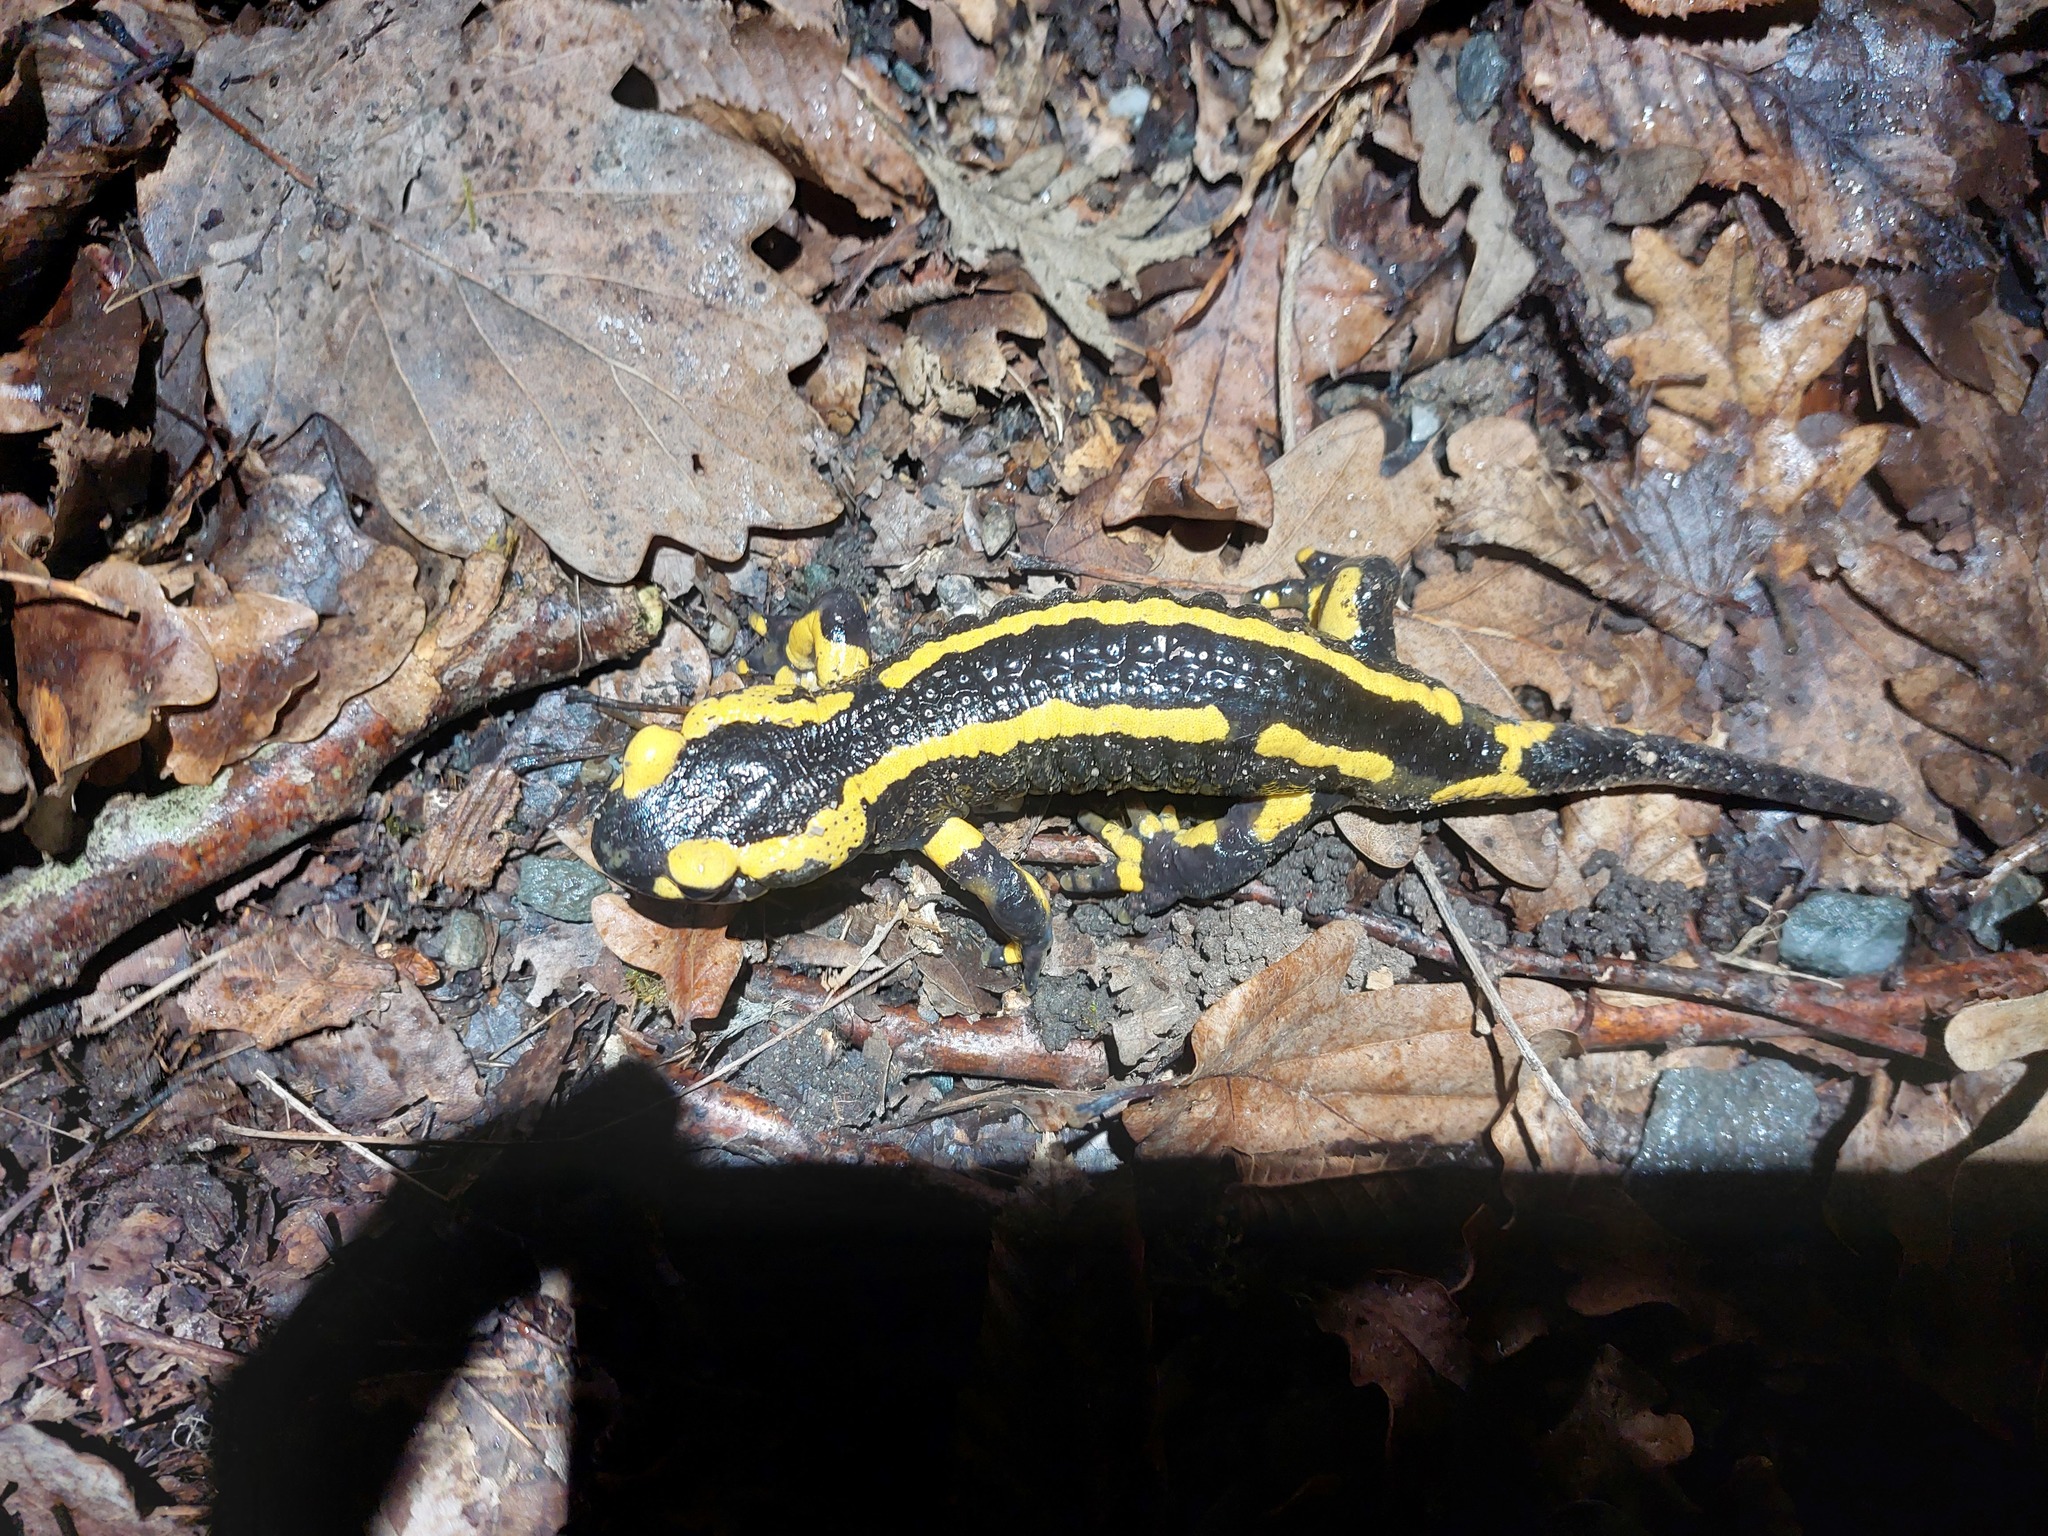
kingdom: Animalia
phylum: Chordata
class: Amphibia
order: Caudata
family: Salamandridae
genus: Salamandra
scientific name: Salamandra salamandra
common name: Fire salamander
